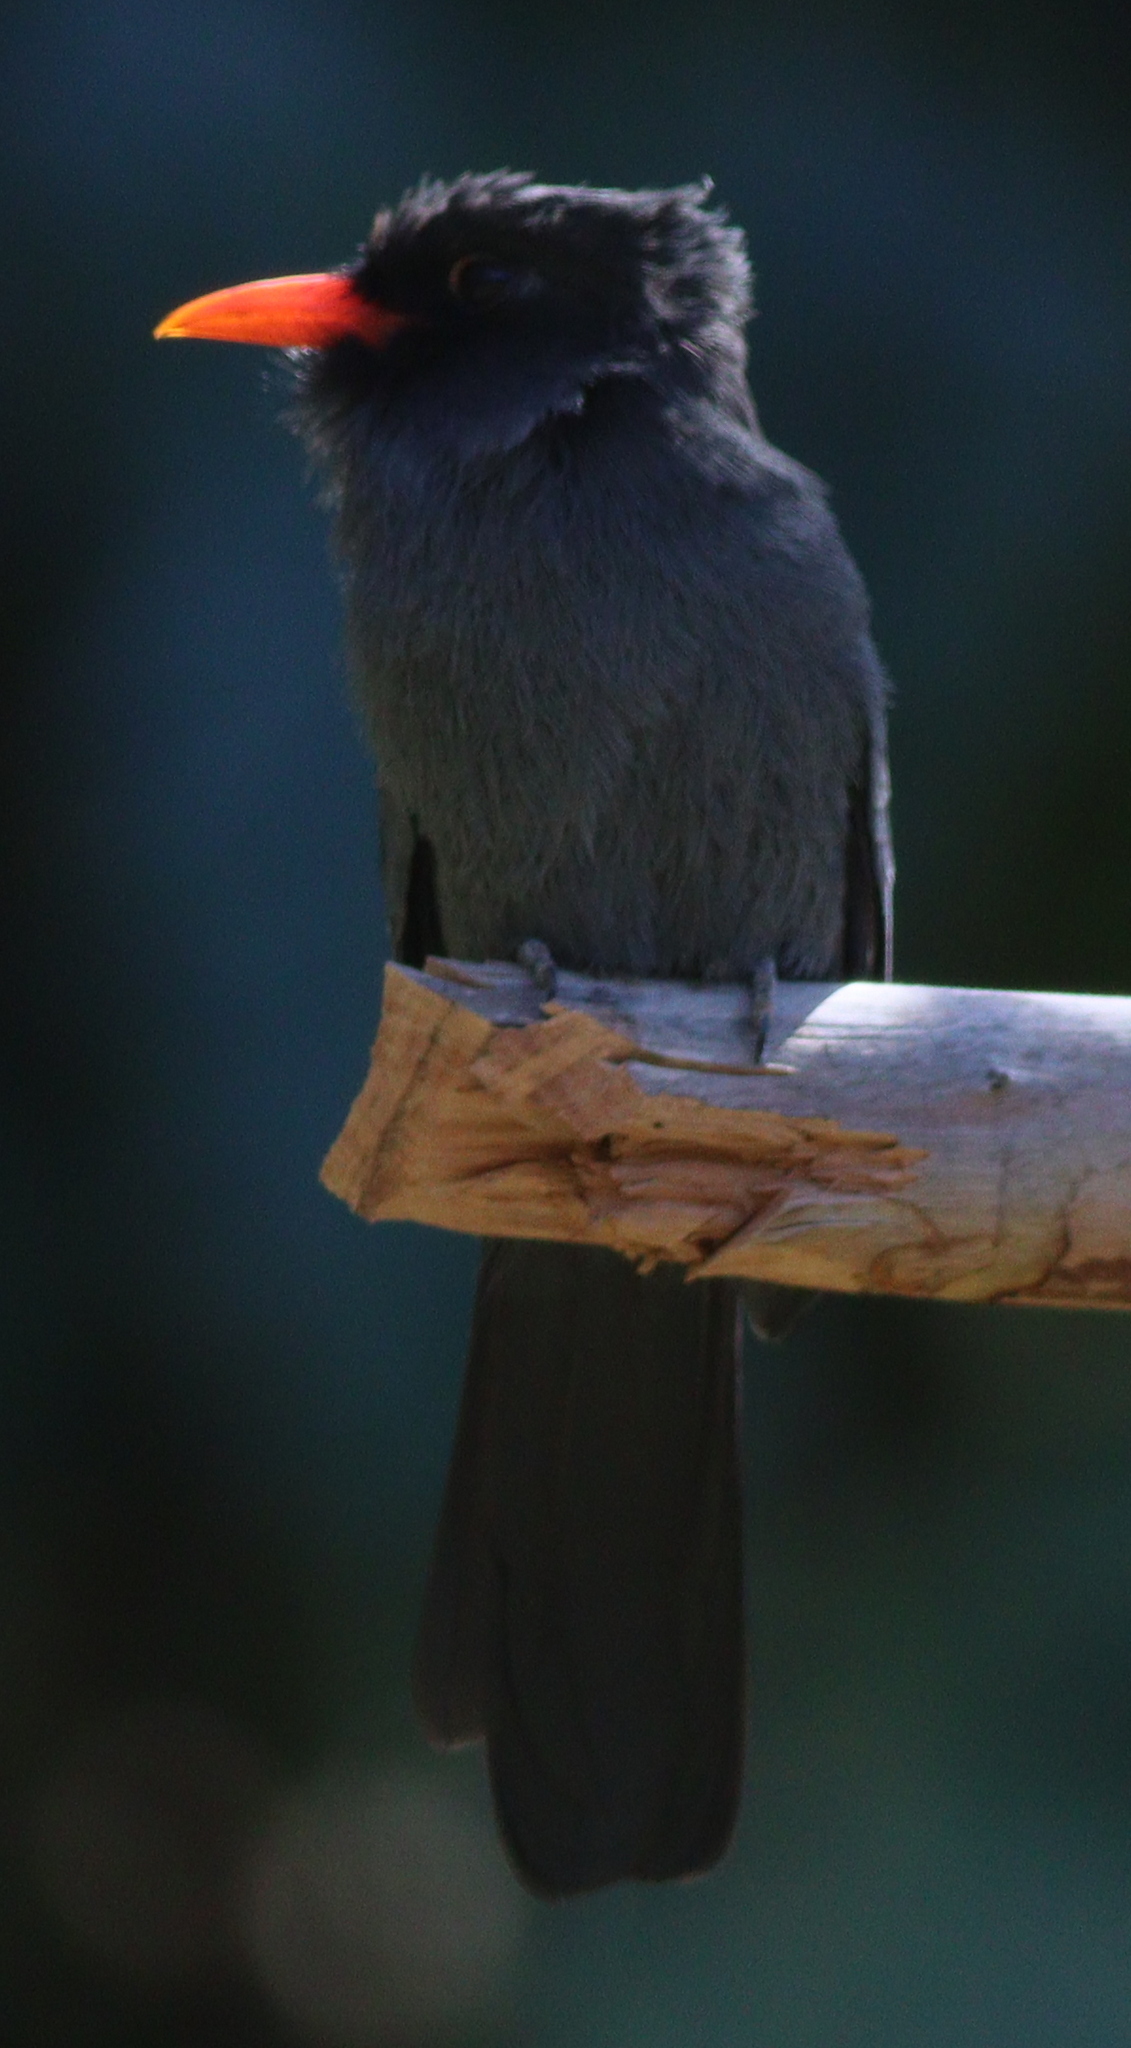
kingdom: Animalia
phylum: Chordata
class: Aves
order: Piciformes
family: Bucconidae
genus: Monasa
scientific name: Monasa nigrifrons
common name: Black-fronted nunbird
